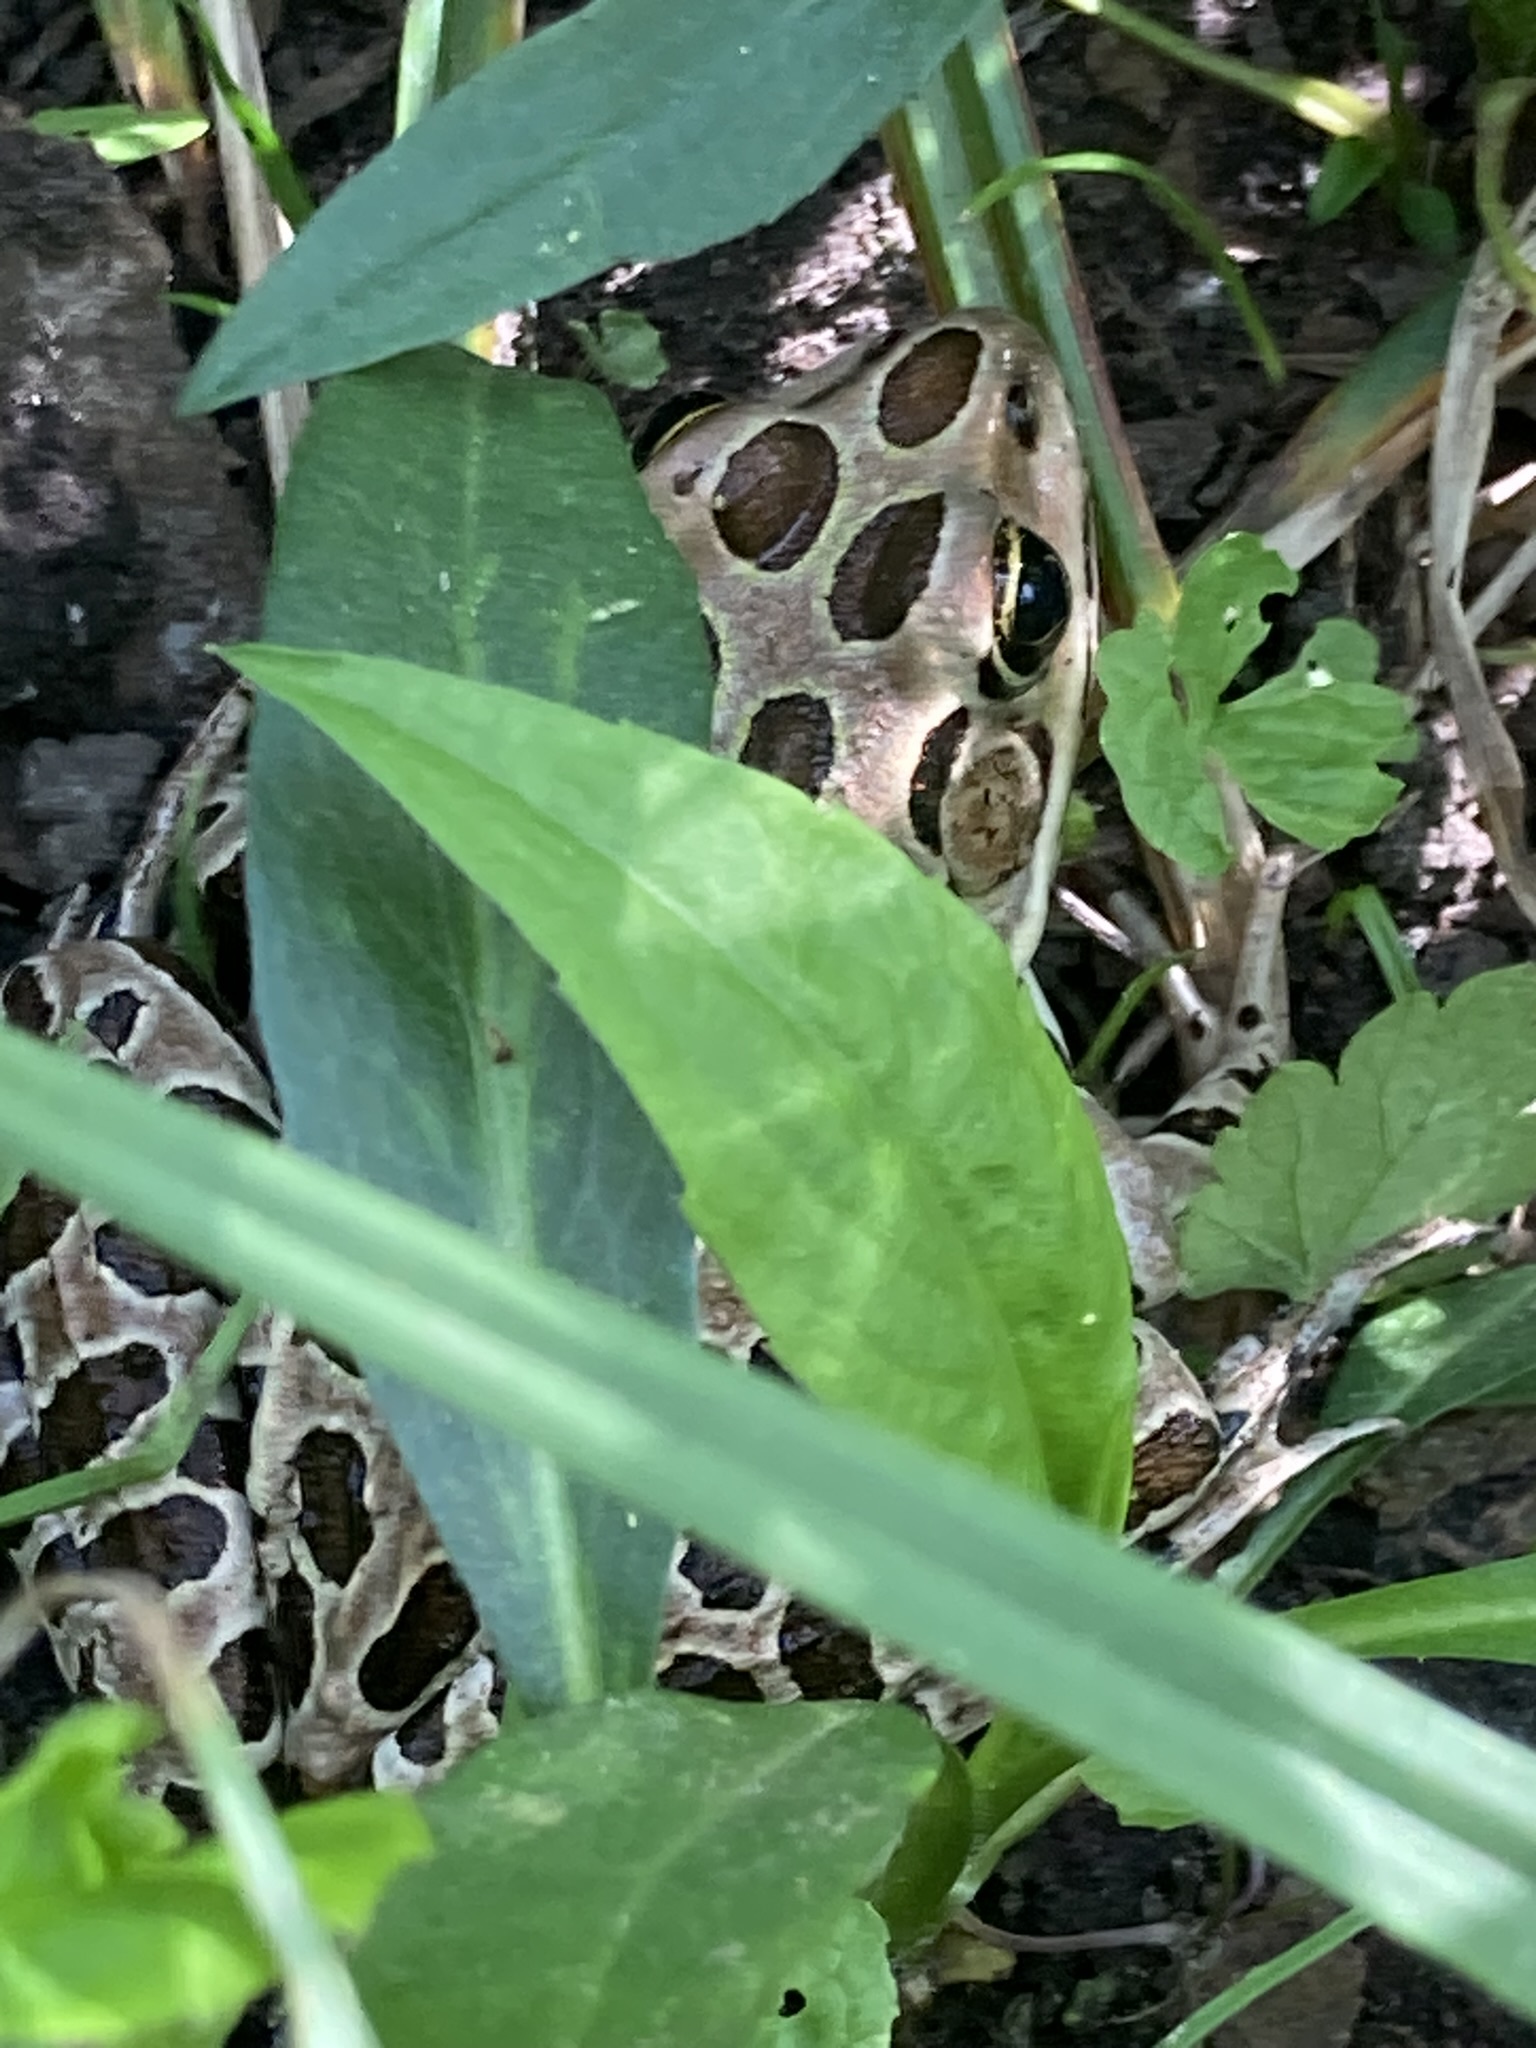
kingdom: Animalia
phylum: Chordata
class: Amphibia
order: Anura
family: Ranidae
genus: Lithobates
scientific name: Lithobates pipiens
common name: Northern leopard frog
